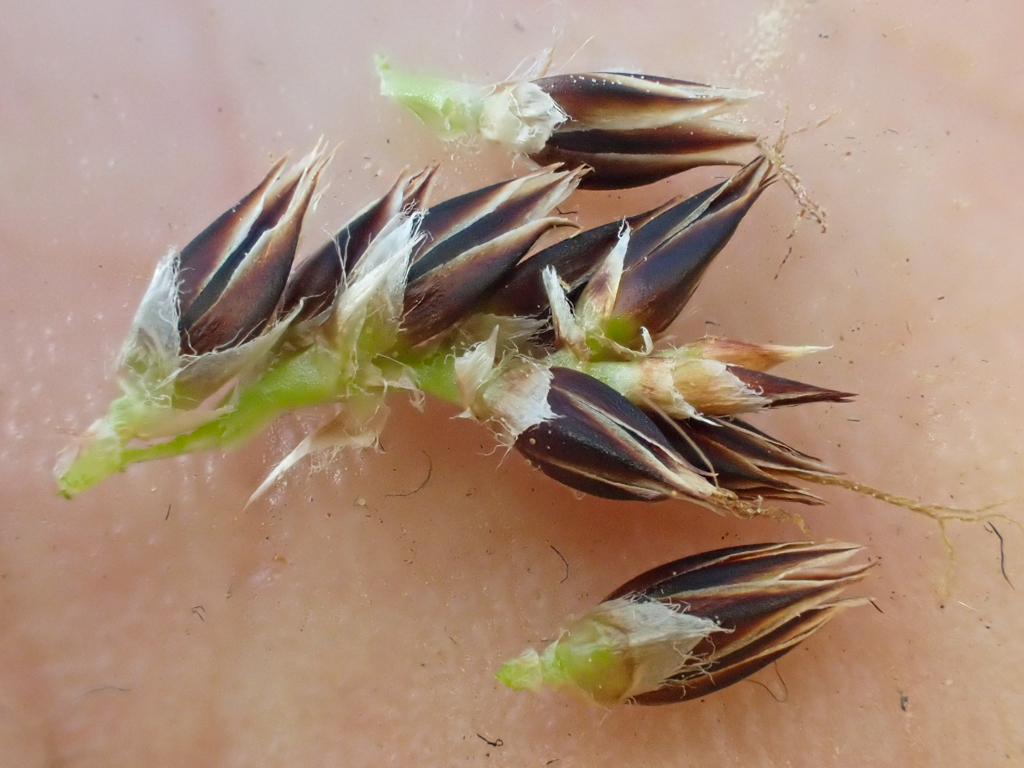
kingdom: Plantae
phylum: Tracheophyta
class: Liliopsida
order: Poales
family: Juncaceae
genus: Luzula
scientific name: Luzula macrantha
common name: Large-anthered woodrush
